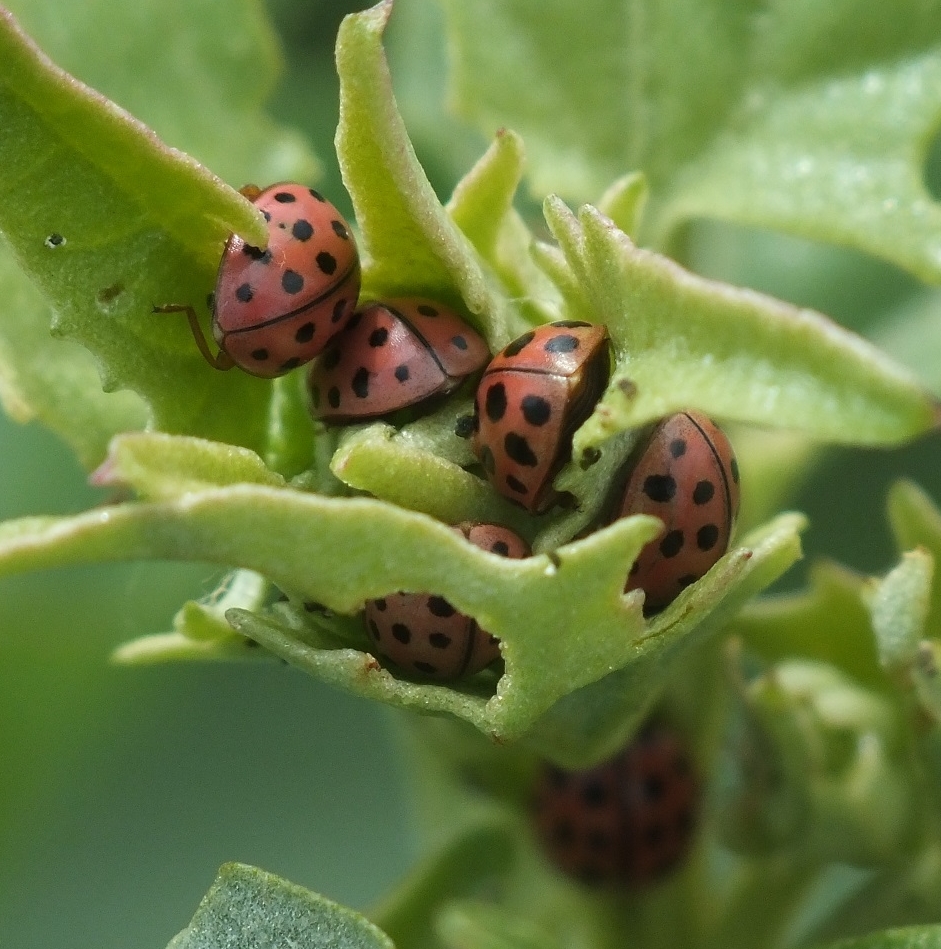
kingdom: Animalia
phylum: Arthropoda
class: Insecta
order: Coleoptera
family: Coccinellidae
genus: Bulaea
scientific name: Bulaea lichatschovi
